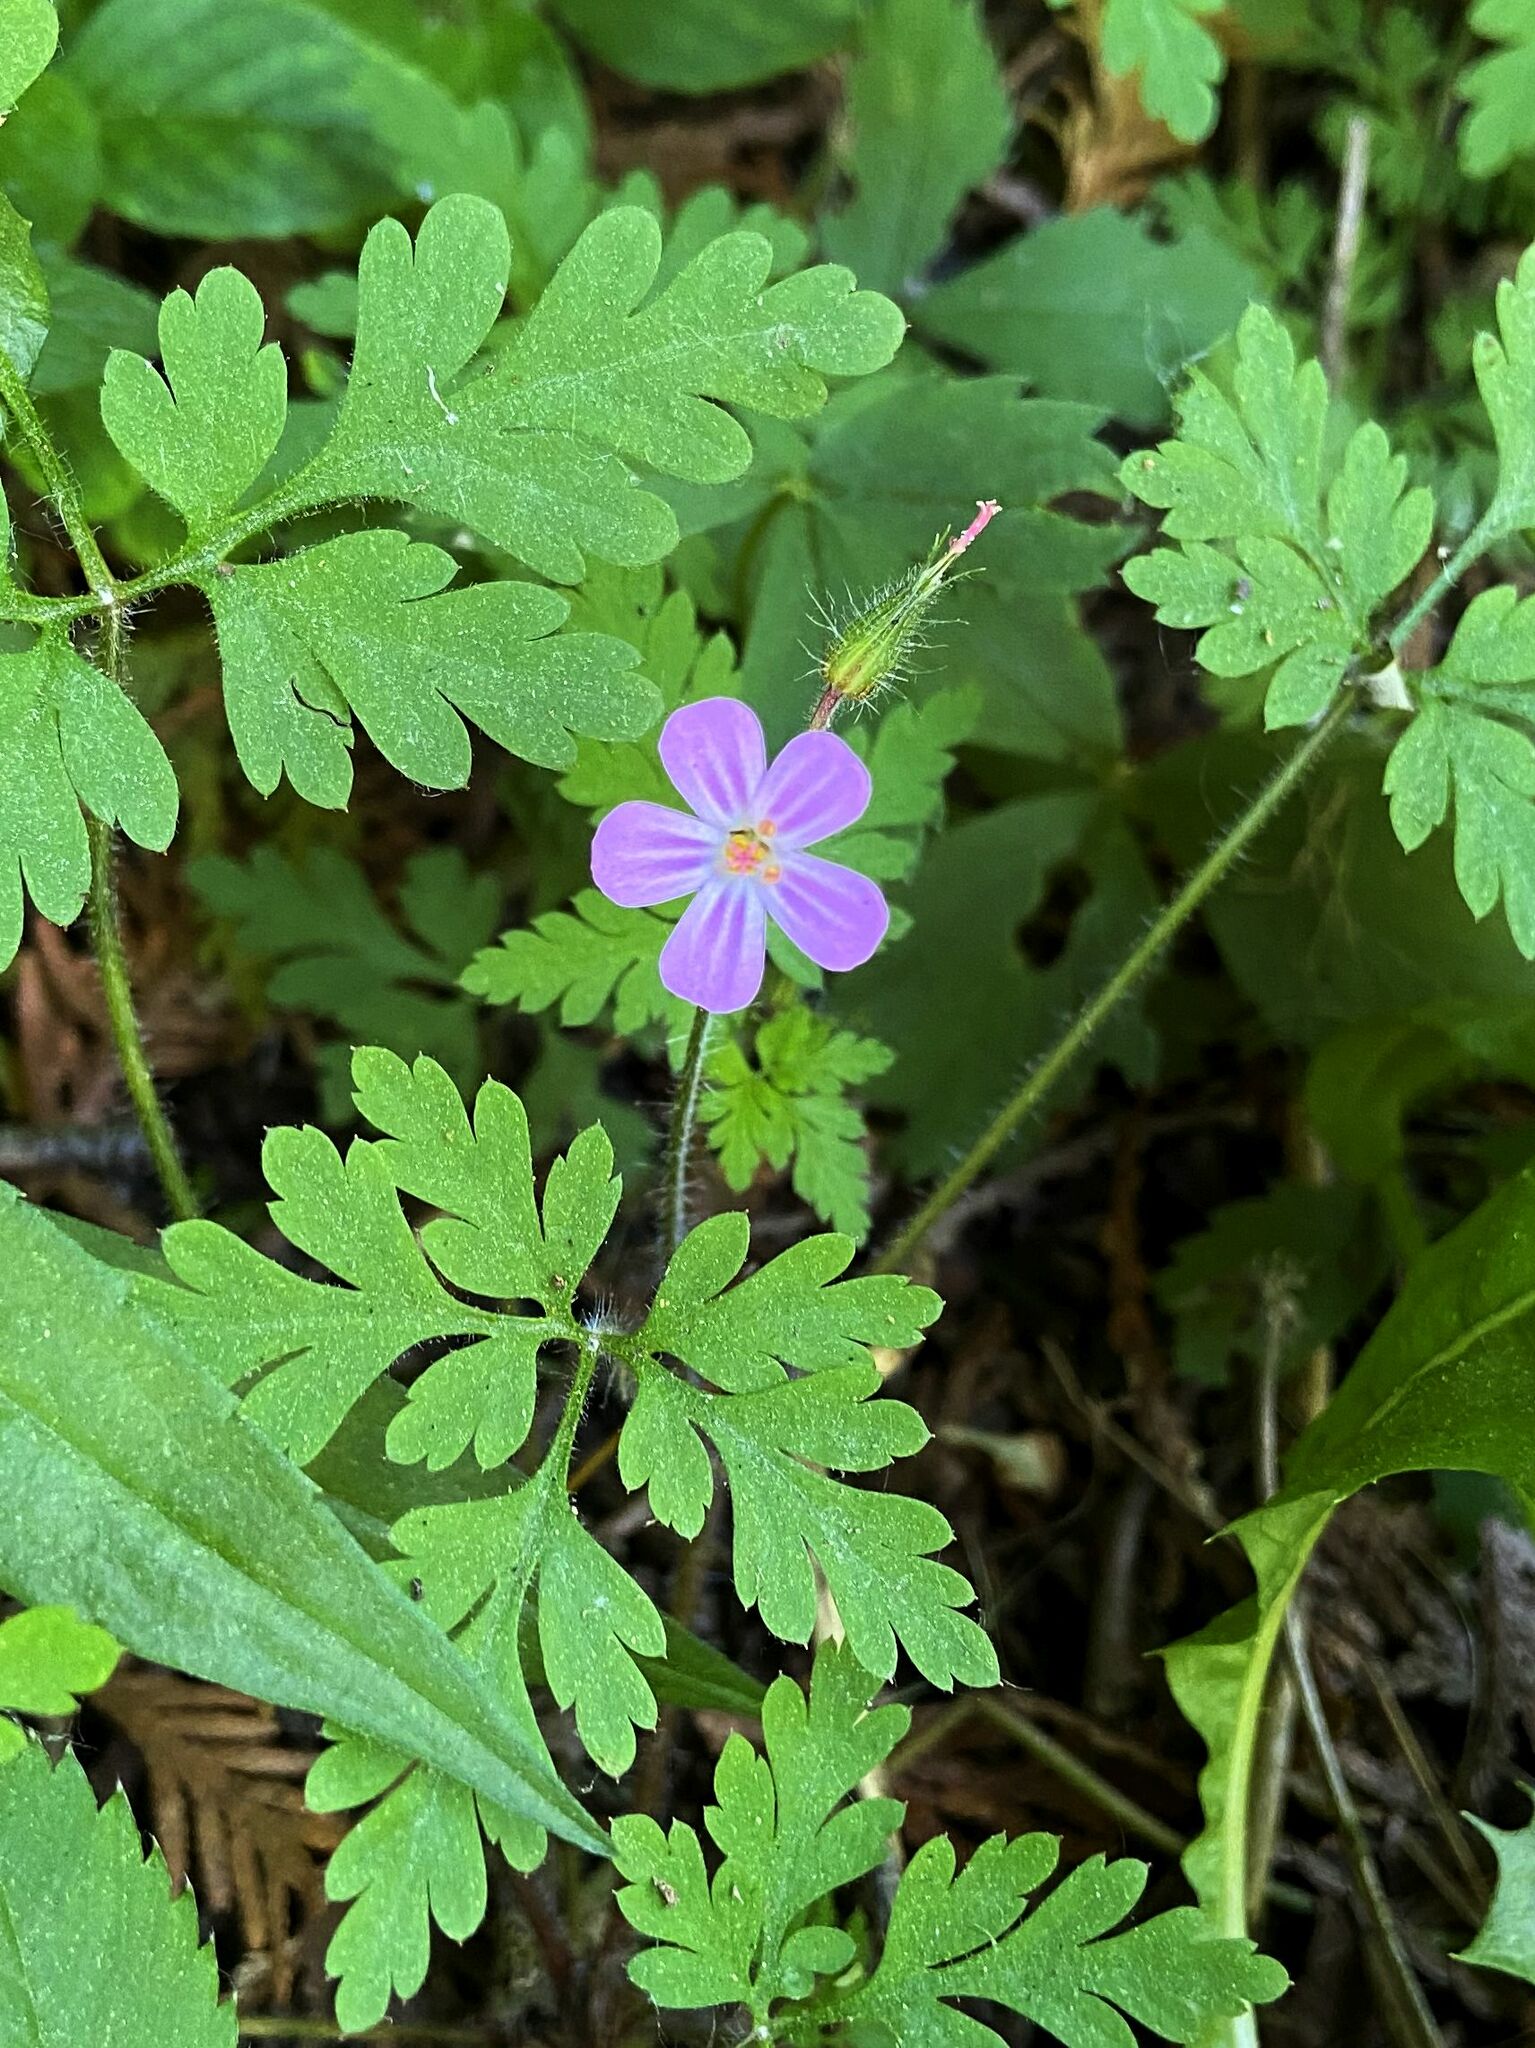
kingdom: Plantae
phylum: Tracheophyta
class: Magnoliopsida
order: Geraniales
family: Geraniaceae
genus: Geranium
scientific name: Geranium robertianum
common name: Herb-robert
